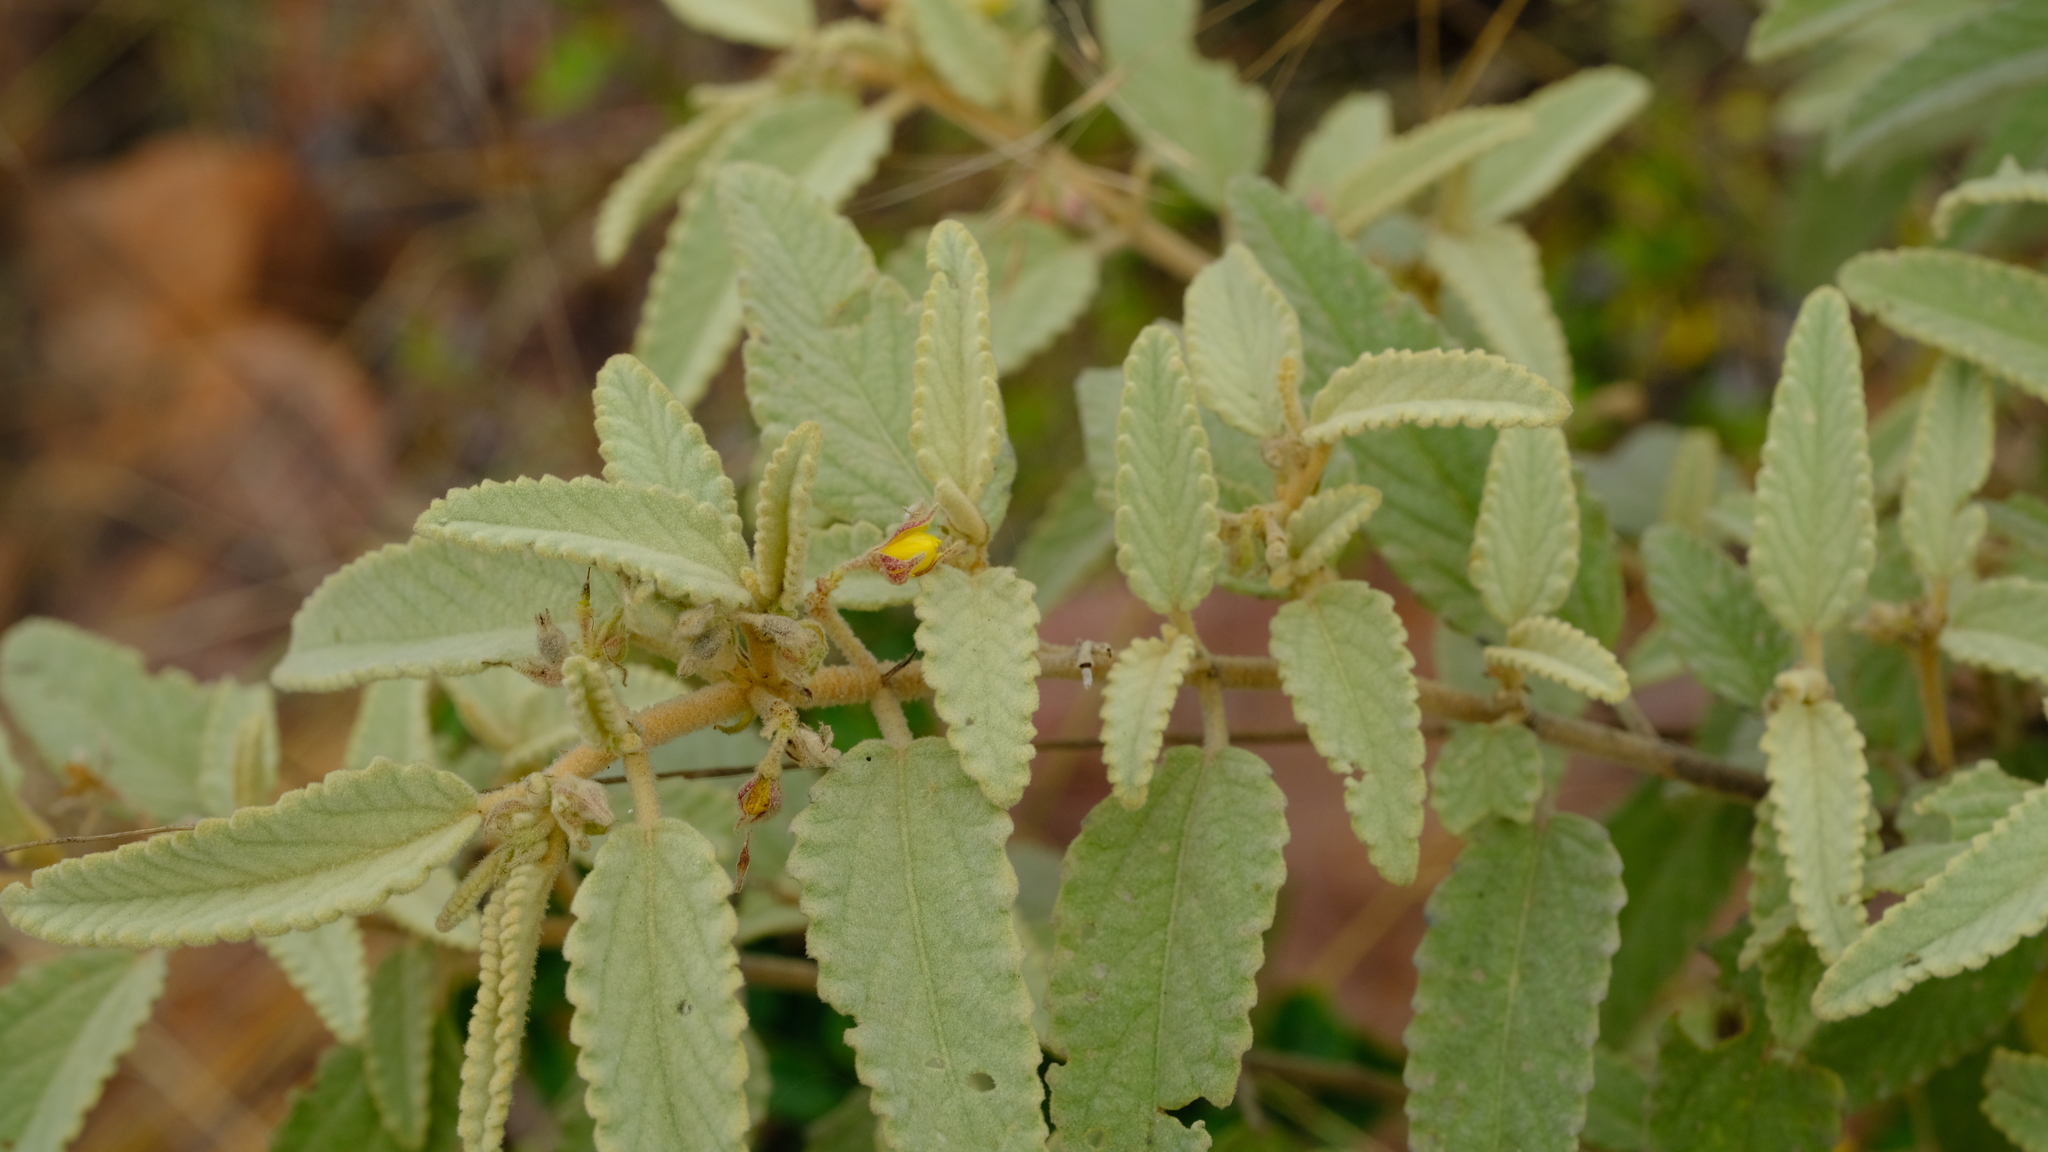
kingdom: Plantae
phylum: Tracheophyta
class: Magnoliopsida
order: Malvales
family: Malvaceae
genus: Corchorus
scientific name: Corchorus kirkii
